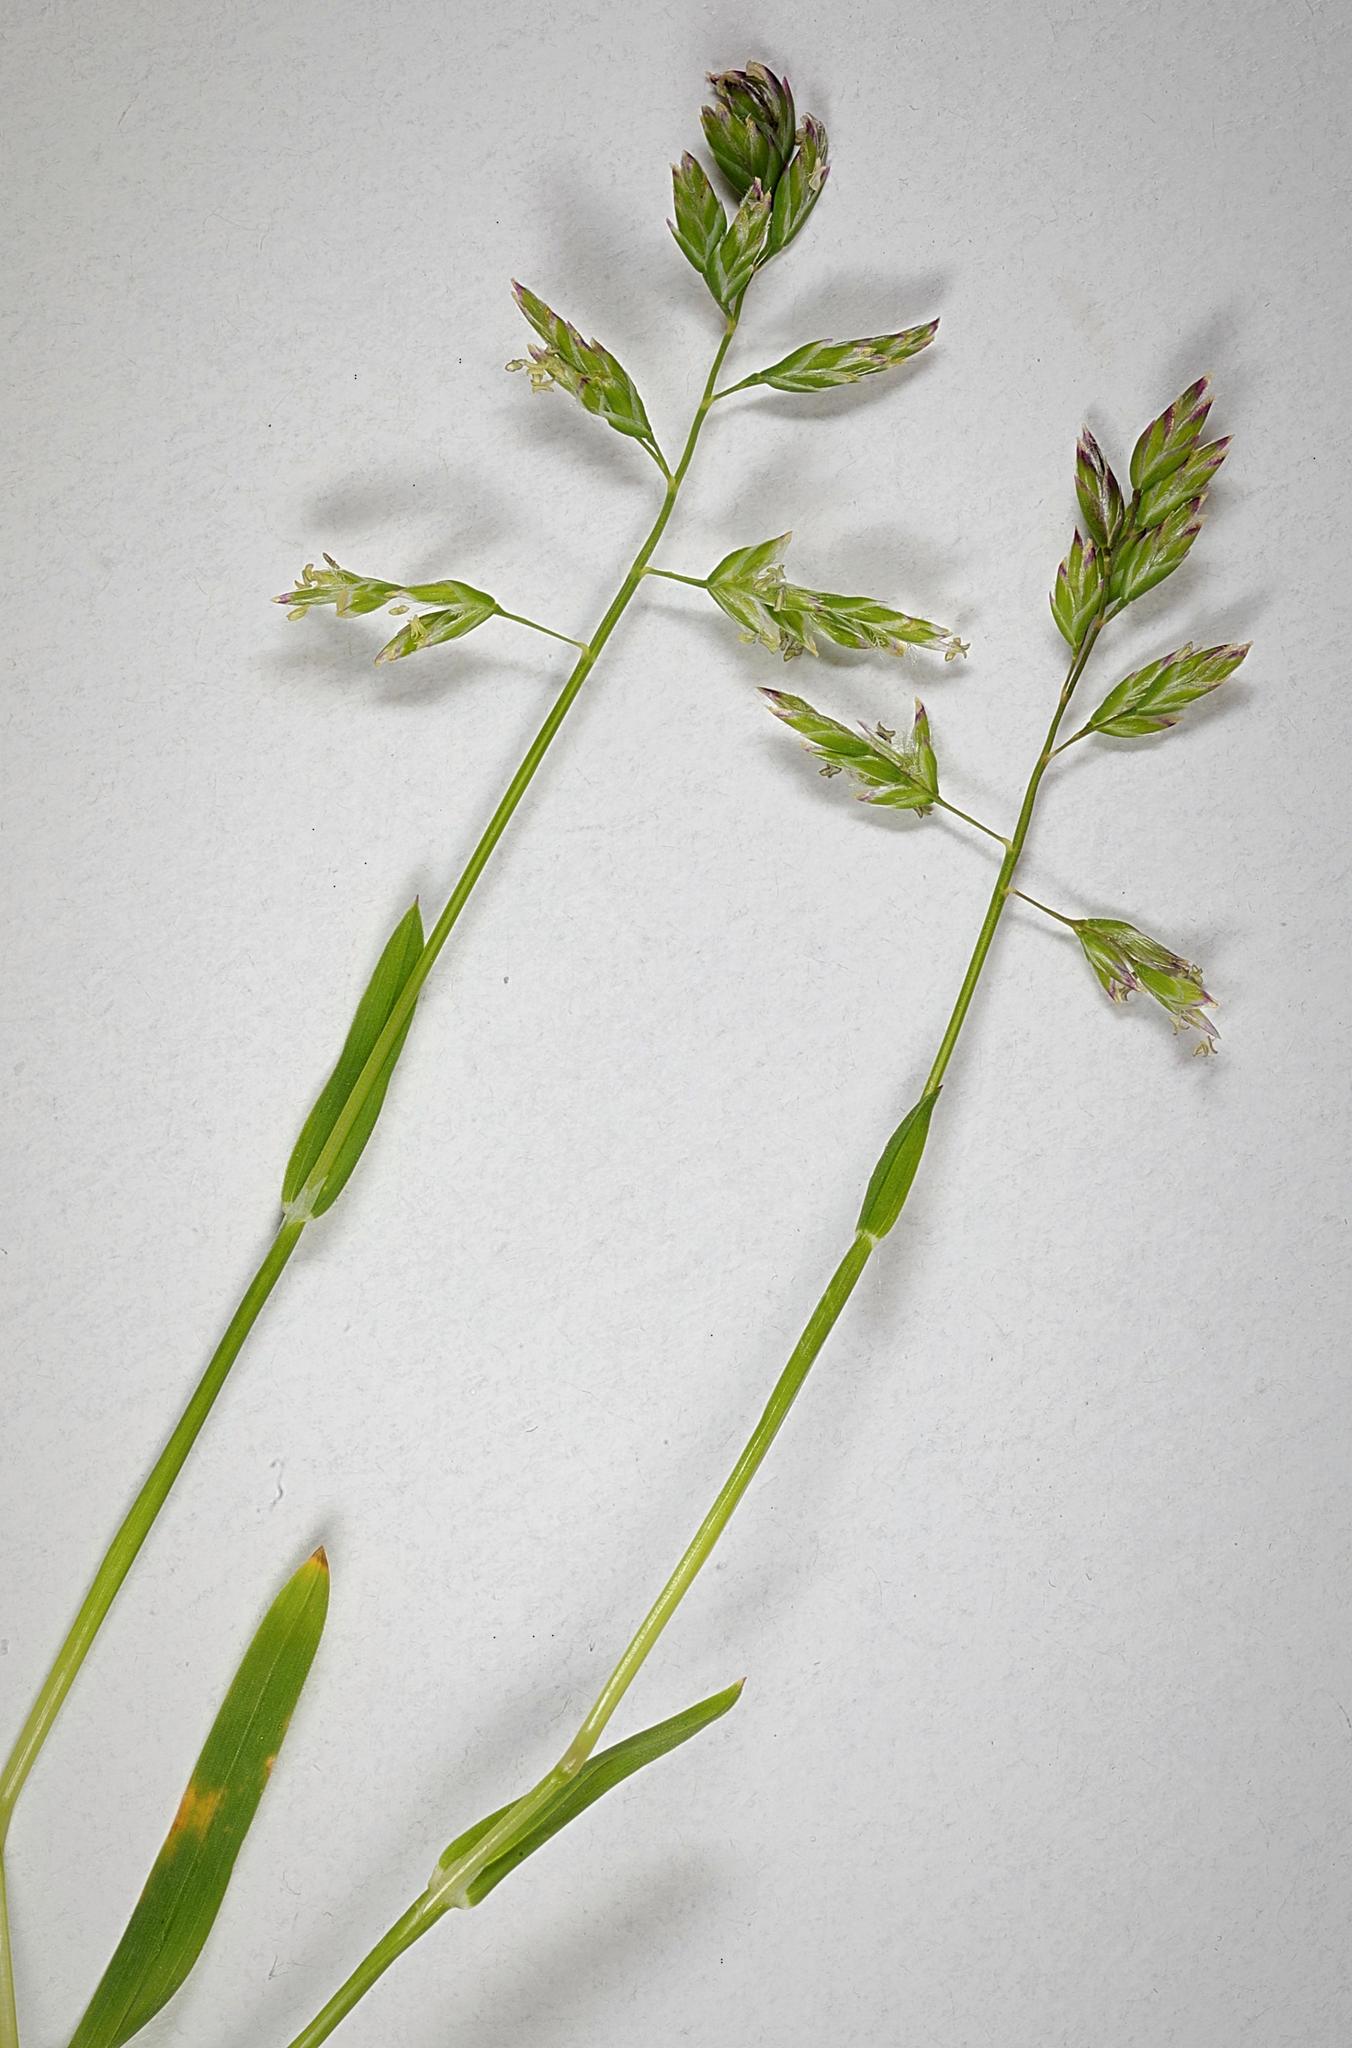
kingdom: Plantae
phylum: Tracheophyta
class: Liliopsida
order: Poales
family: Poaceae
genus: Poa
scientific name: Poa annua
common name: Annual bluegrass
